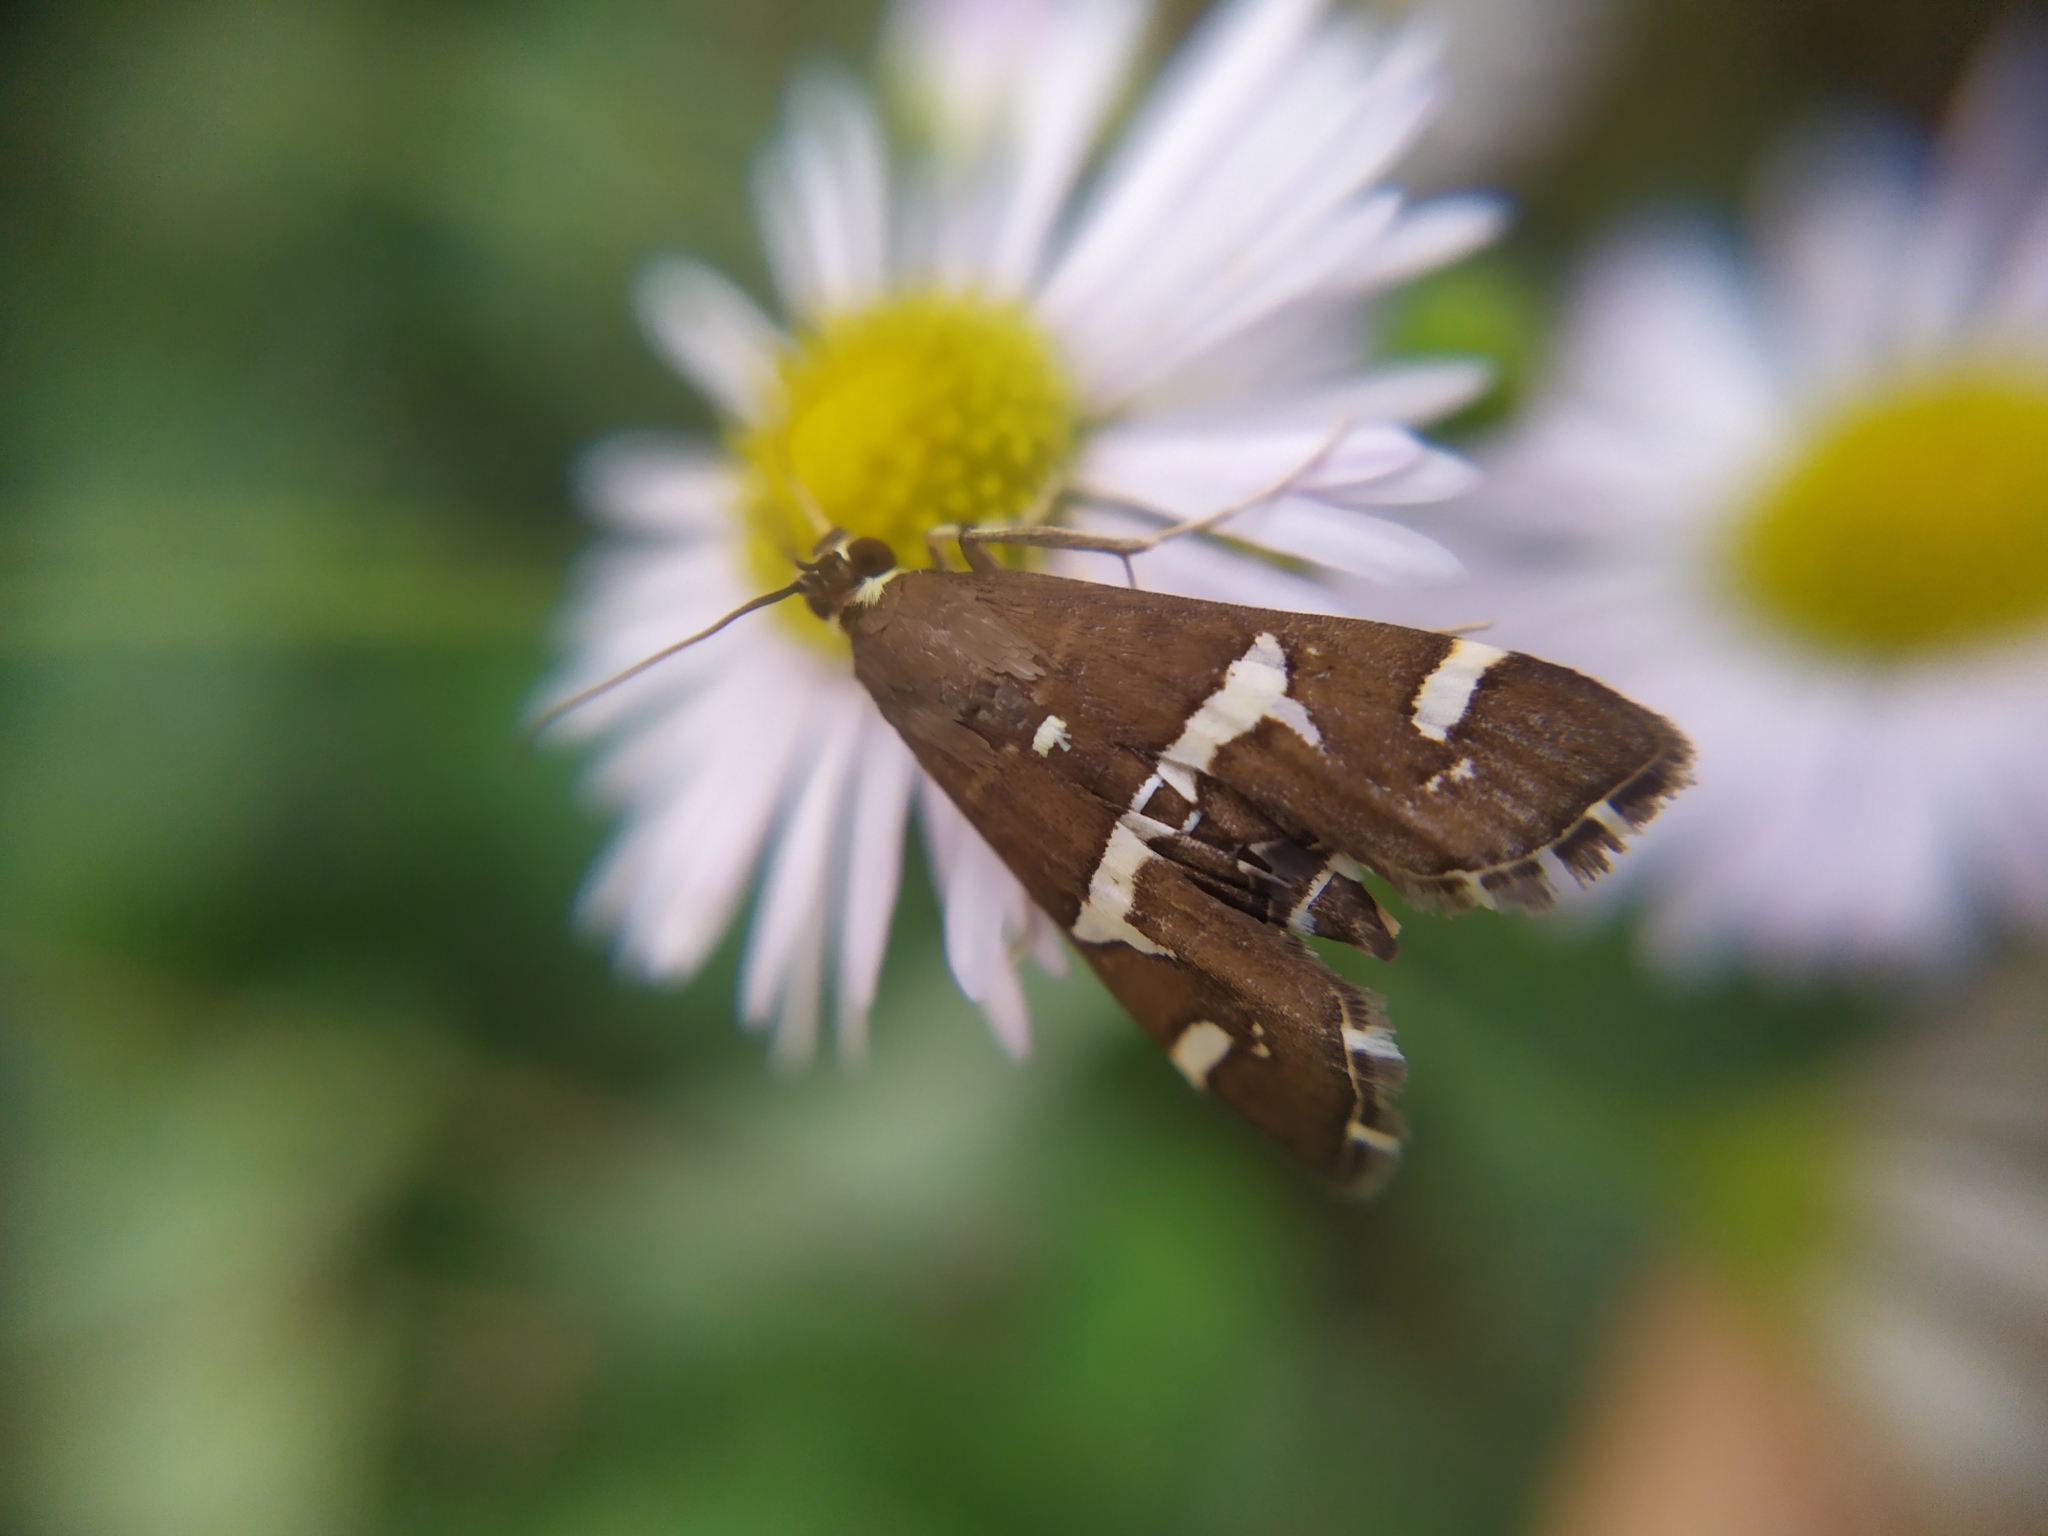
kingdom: Animalia
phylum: Arthropoda
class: Insecta
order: Lepidoptera
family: Crambidae
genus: Spoladea
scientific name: Spoladea recurvalis
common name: Beet webworm moth
